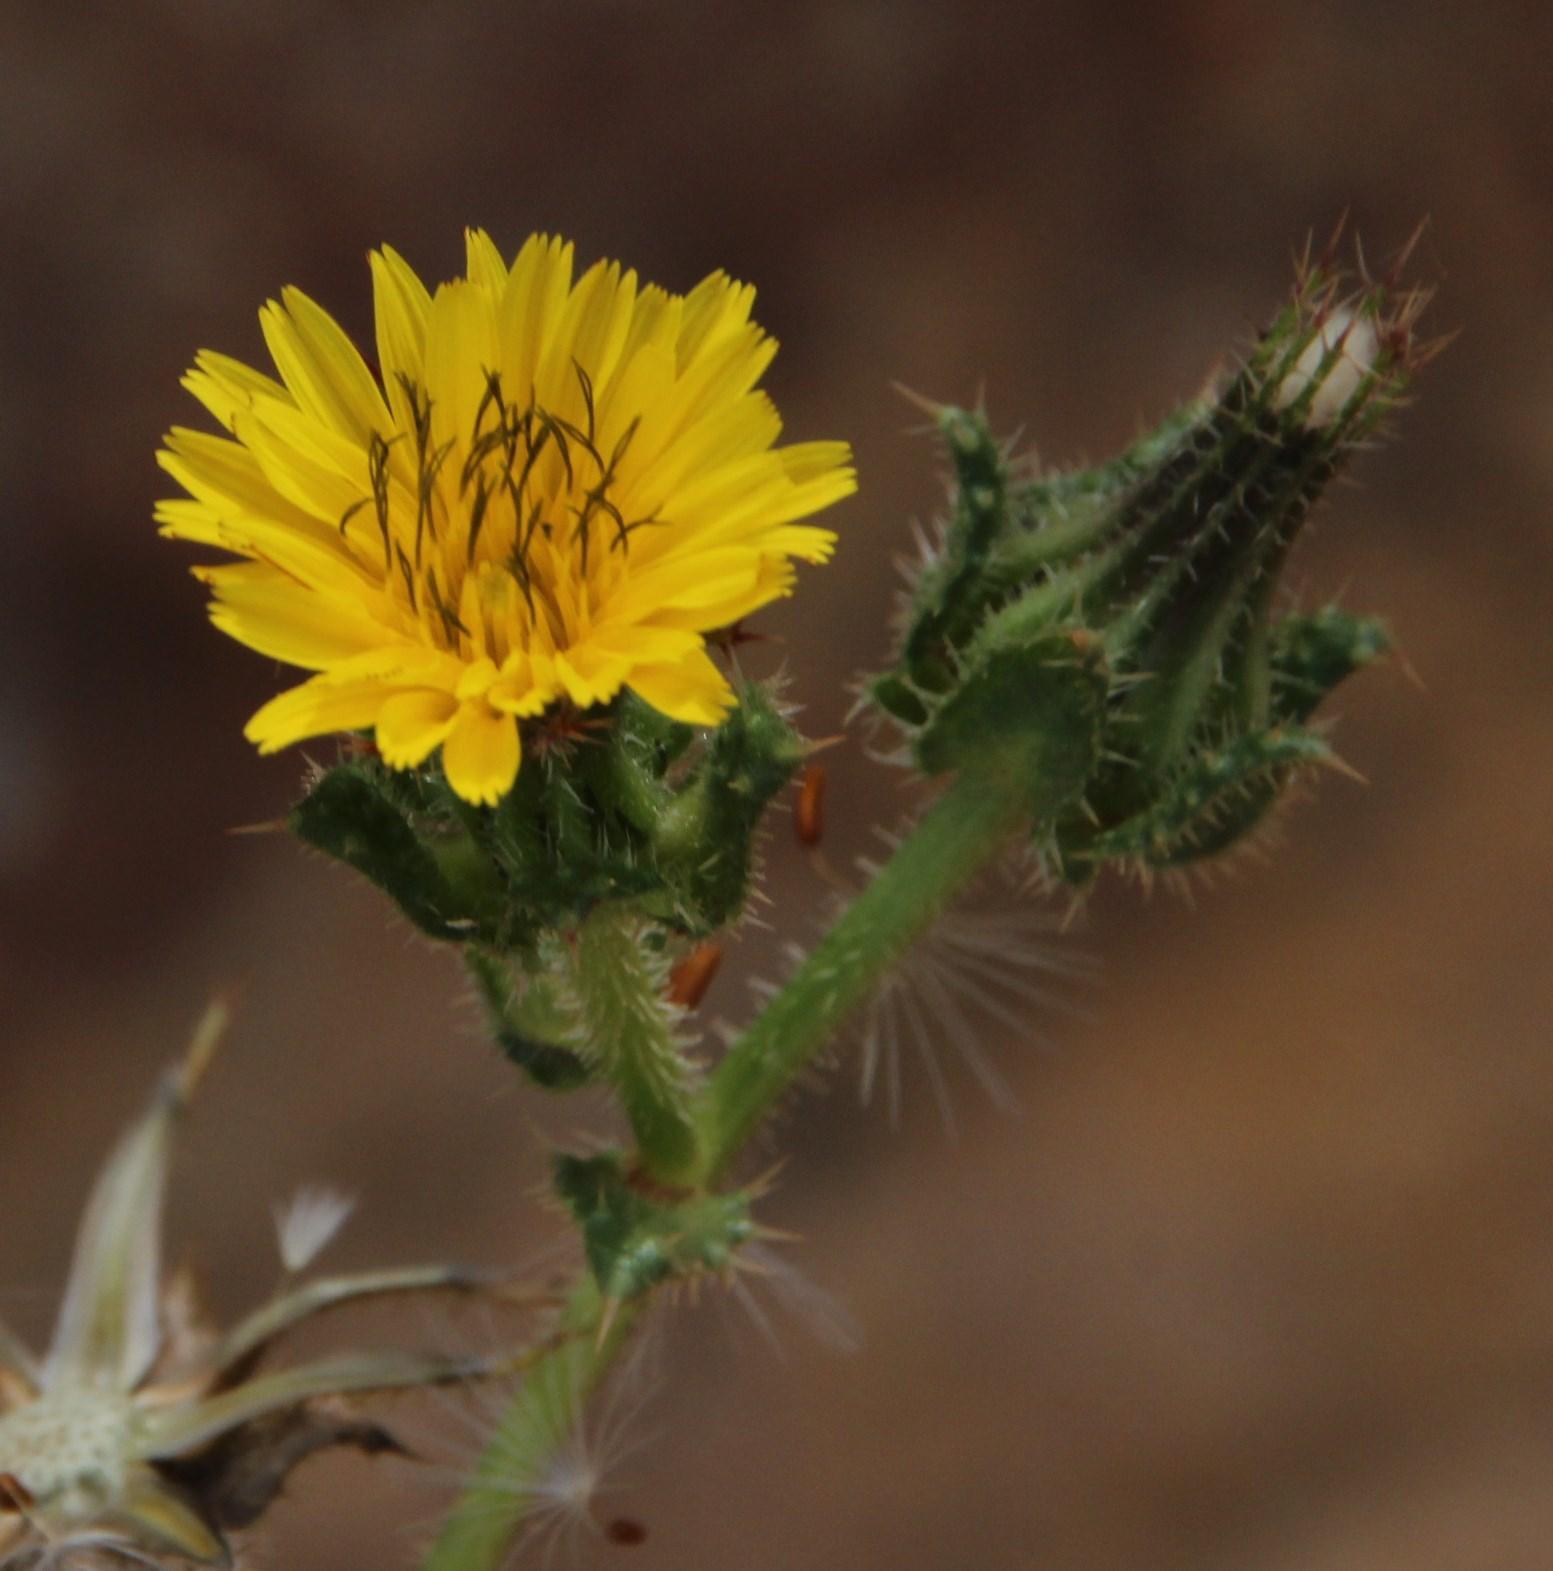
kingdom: Plantae
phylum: Tracheophyta
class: Magnoliopsida
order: Asterales
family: Asteraceae
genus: Helminthotheca
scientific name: Helminthotheca echioides
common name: Ox-tongue
